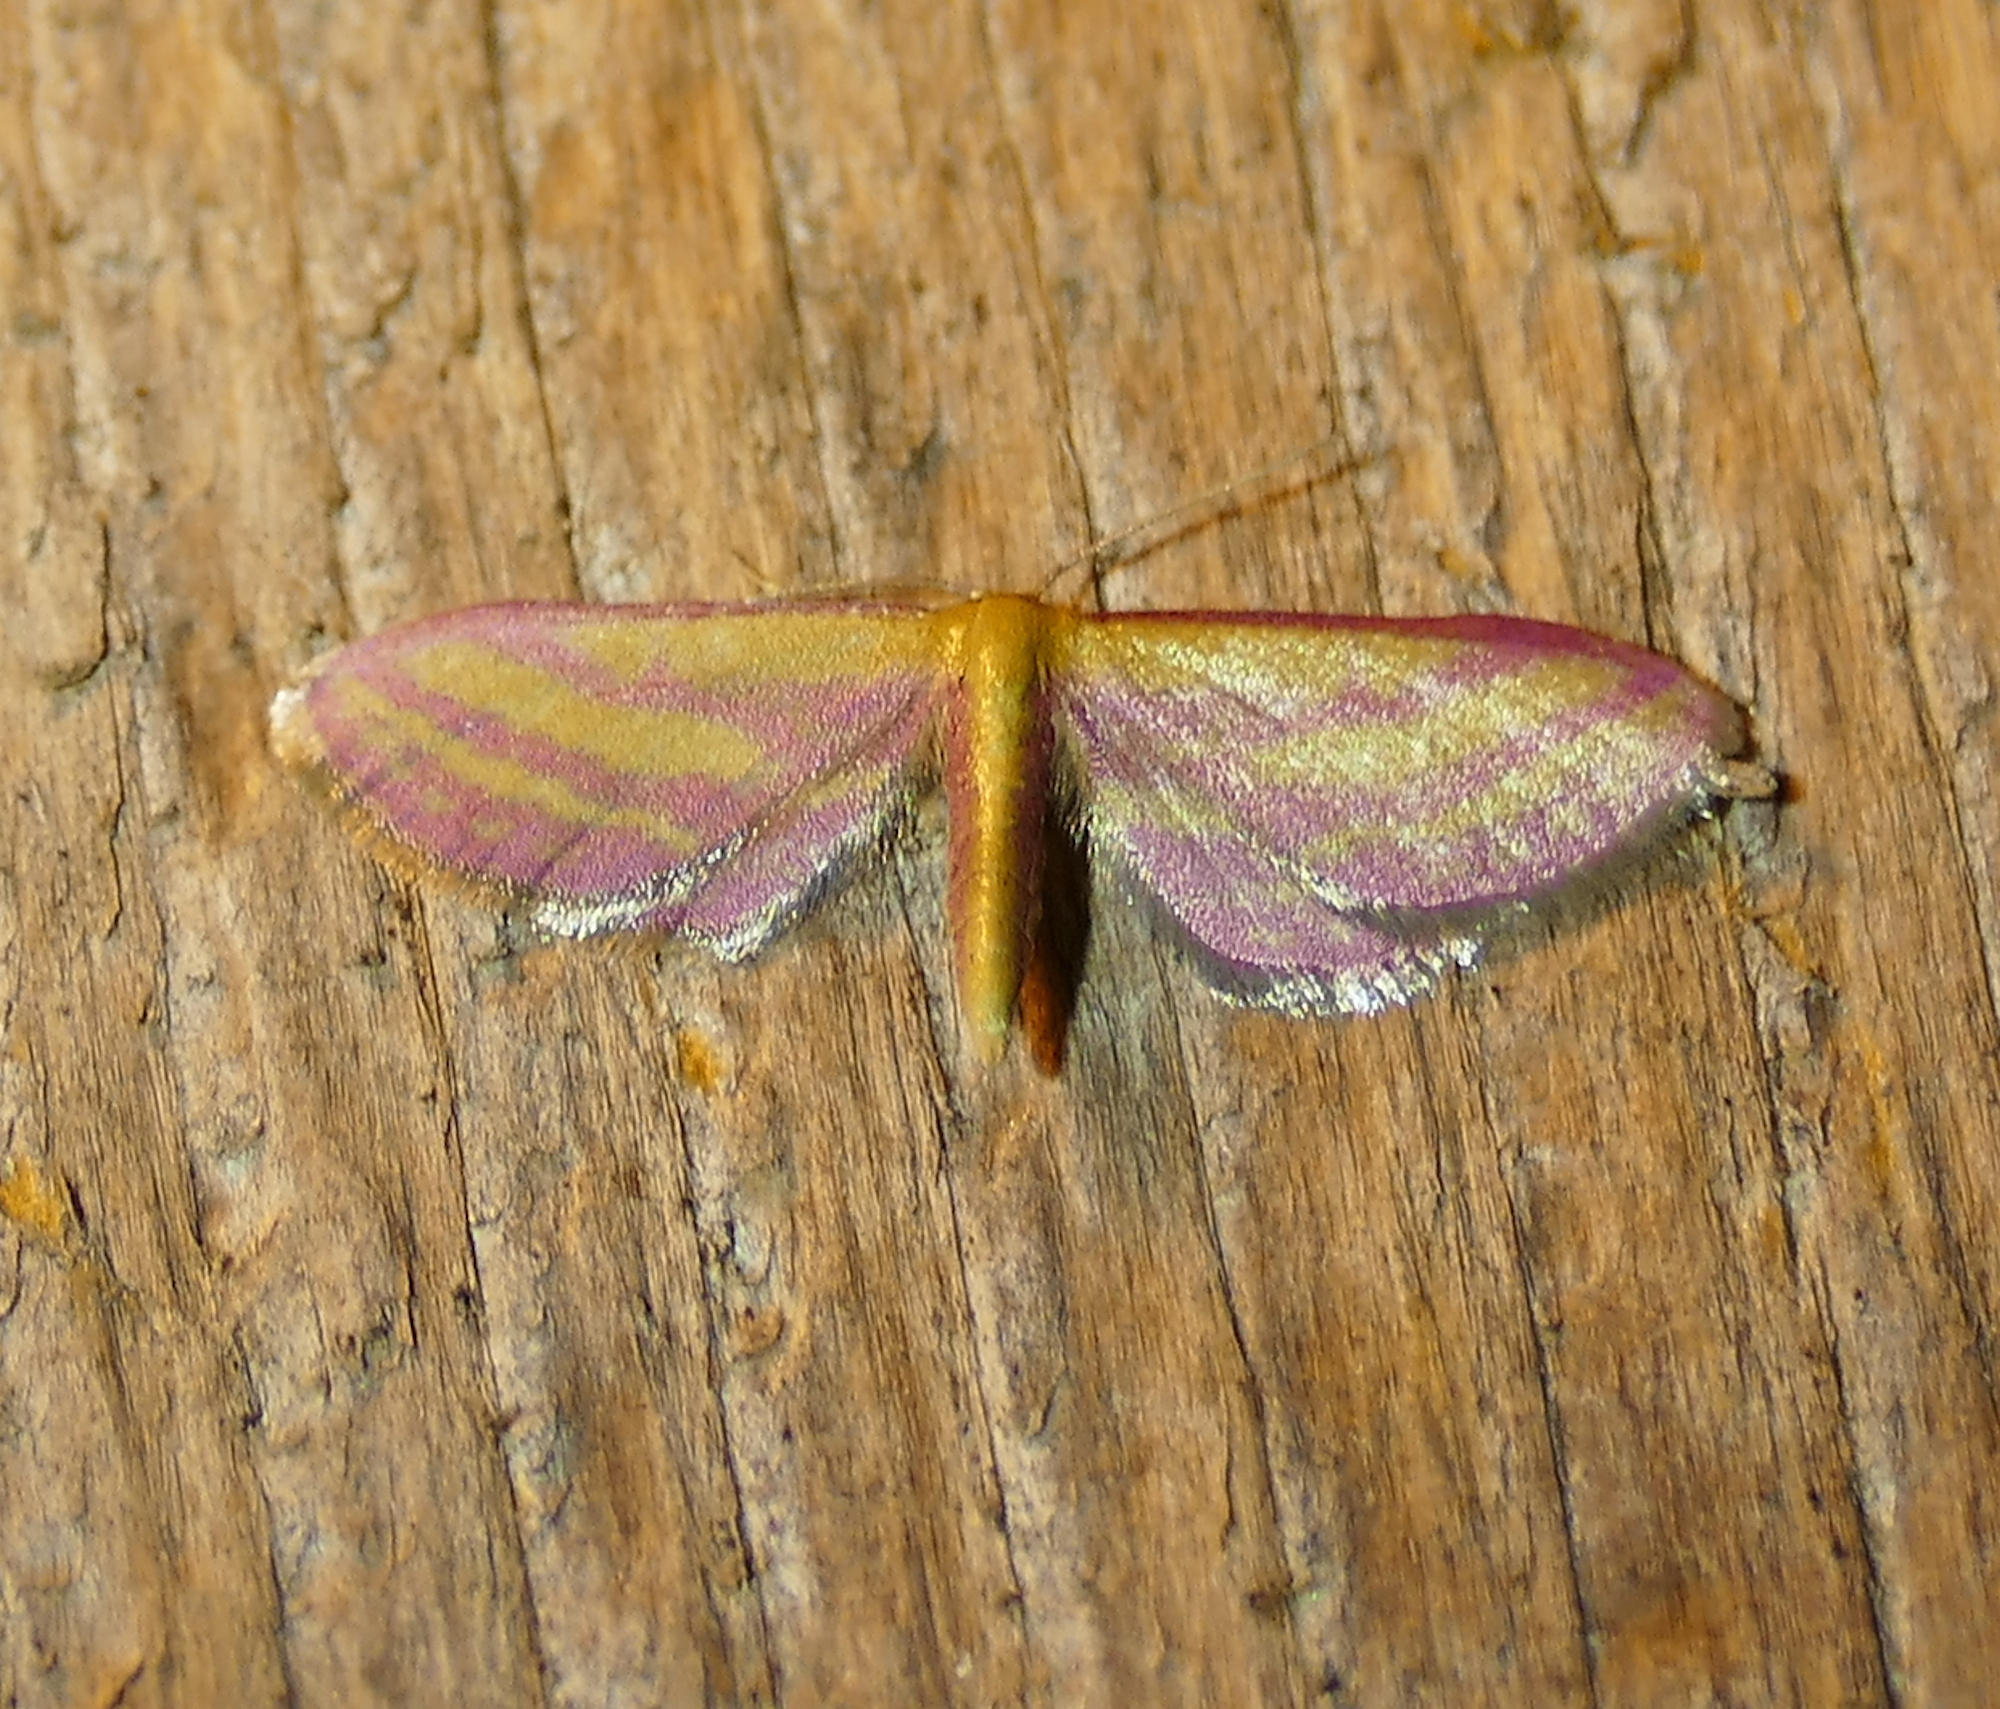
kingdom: Animalia
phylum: Arthropoda
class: Insecta
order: Lepidoptera
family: Geometridae
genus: Leptostales
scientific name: Leptostales laevitaria
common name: Raspberry wave moth
